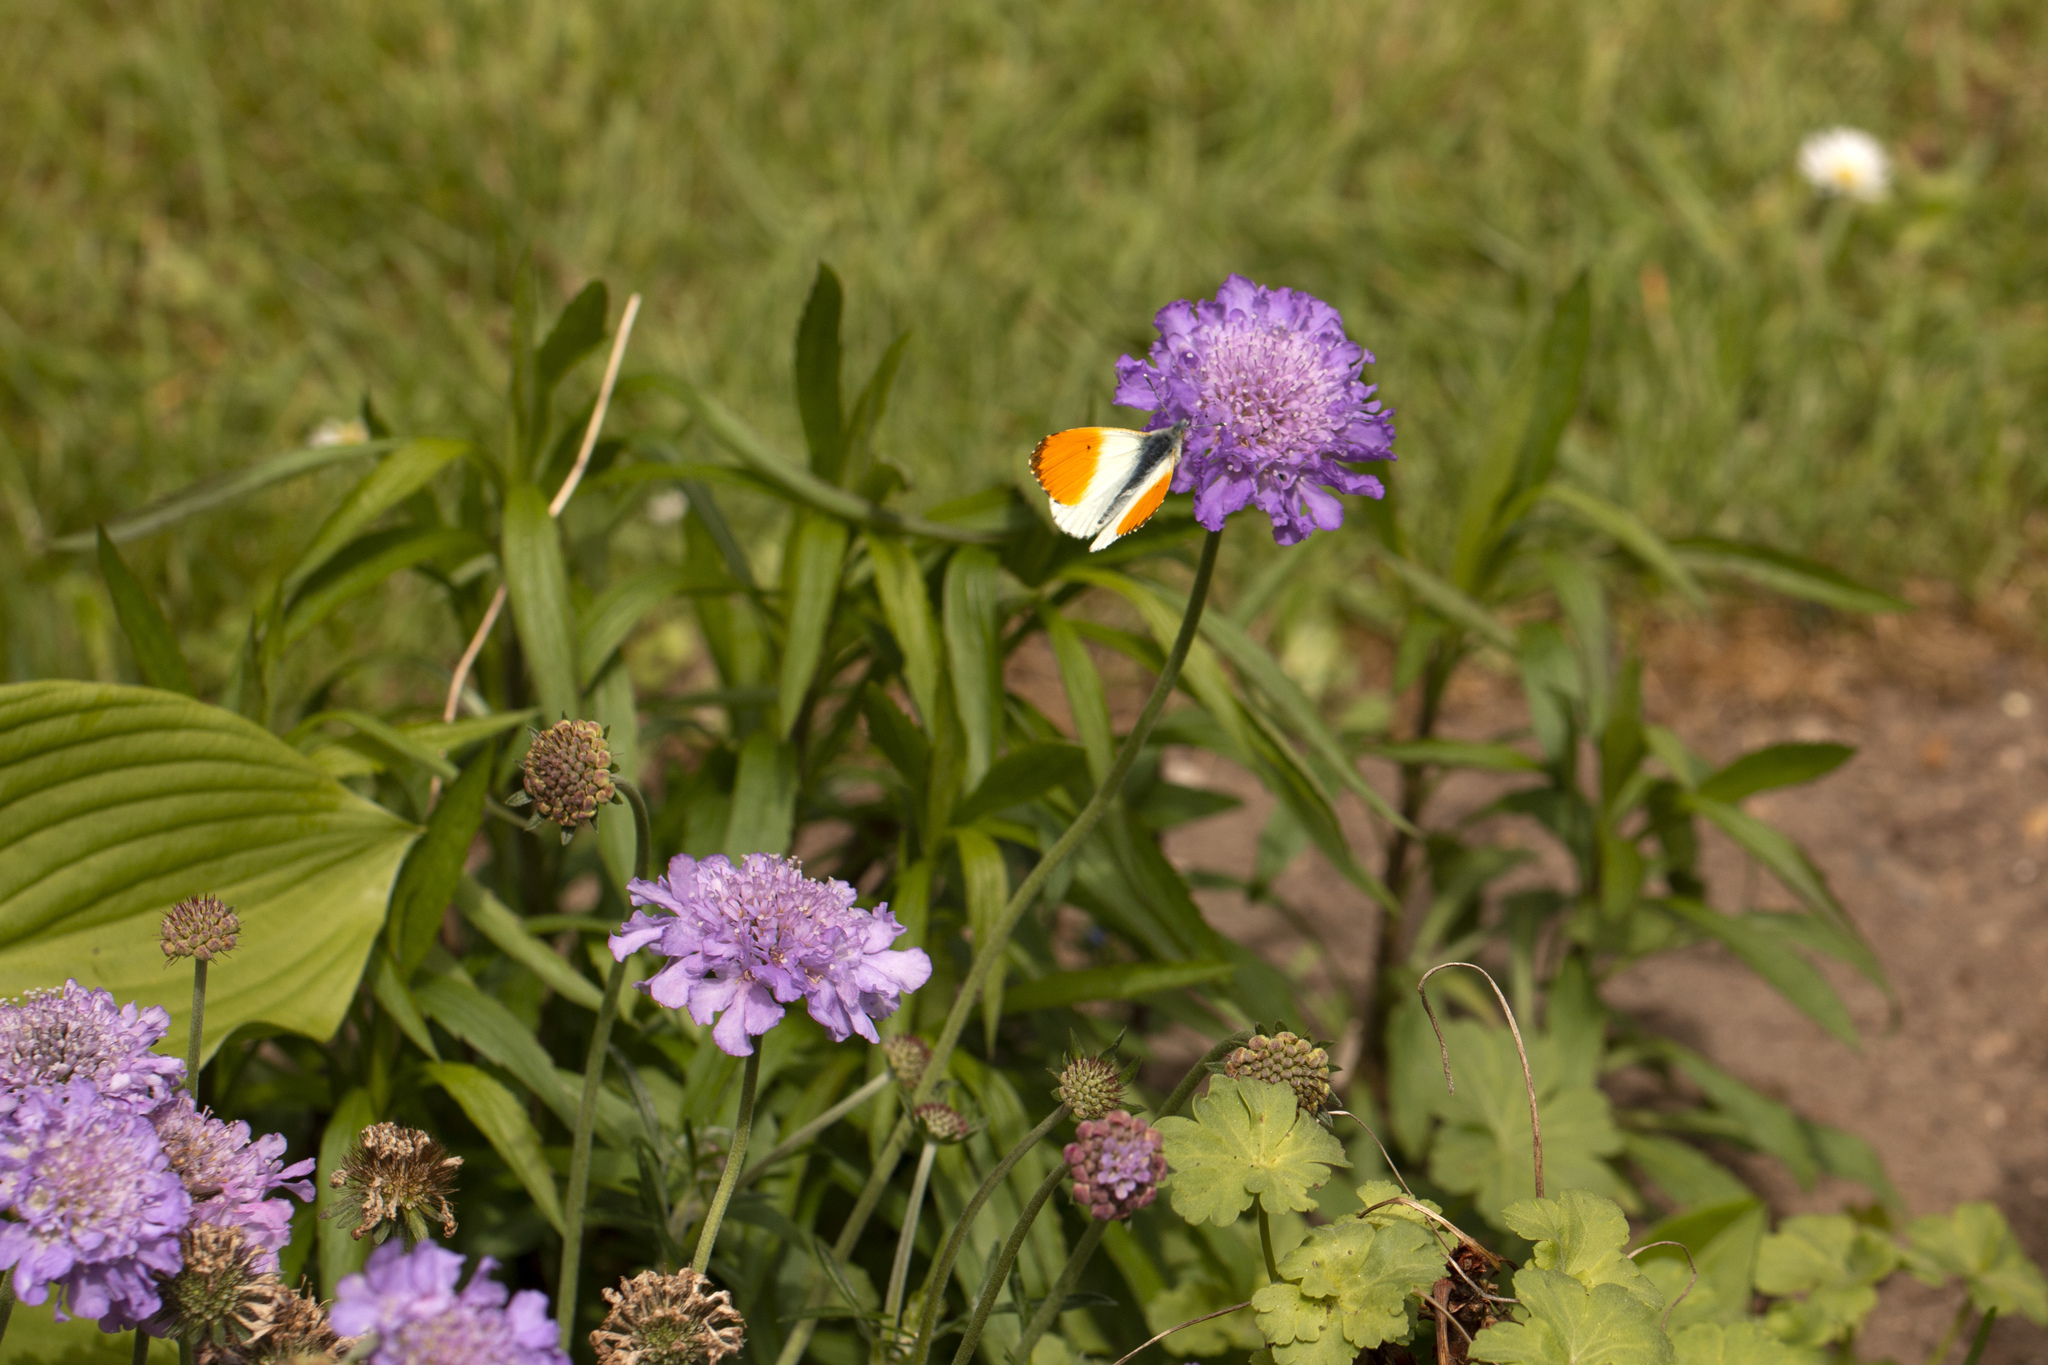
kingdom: Animalia
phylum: Arthropoda
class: Insecta
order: Lepidoptera
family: Pieridae
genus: Anthocharis
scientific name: Anthocharis cardamines
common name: Orange-tip
